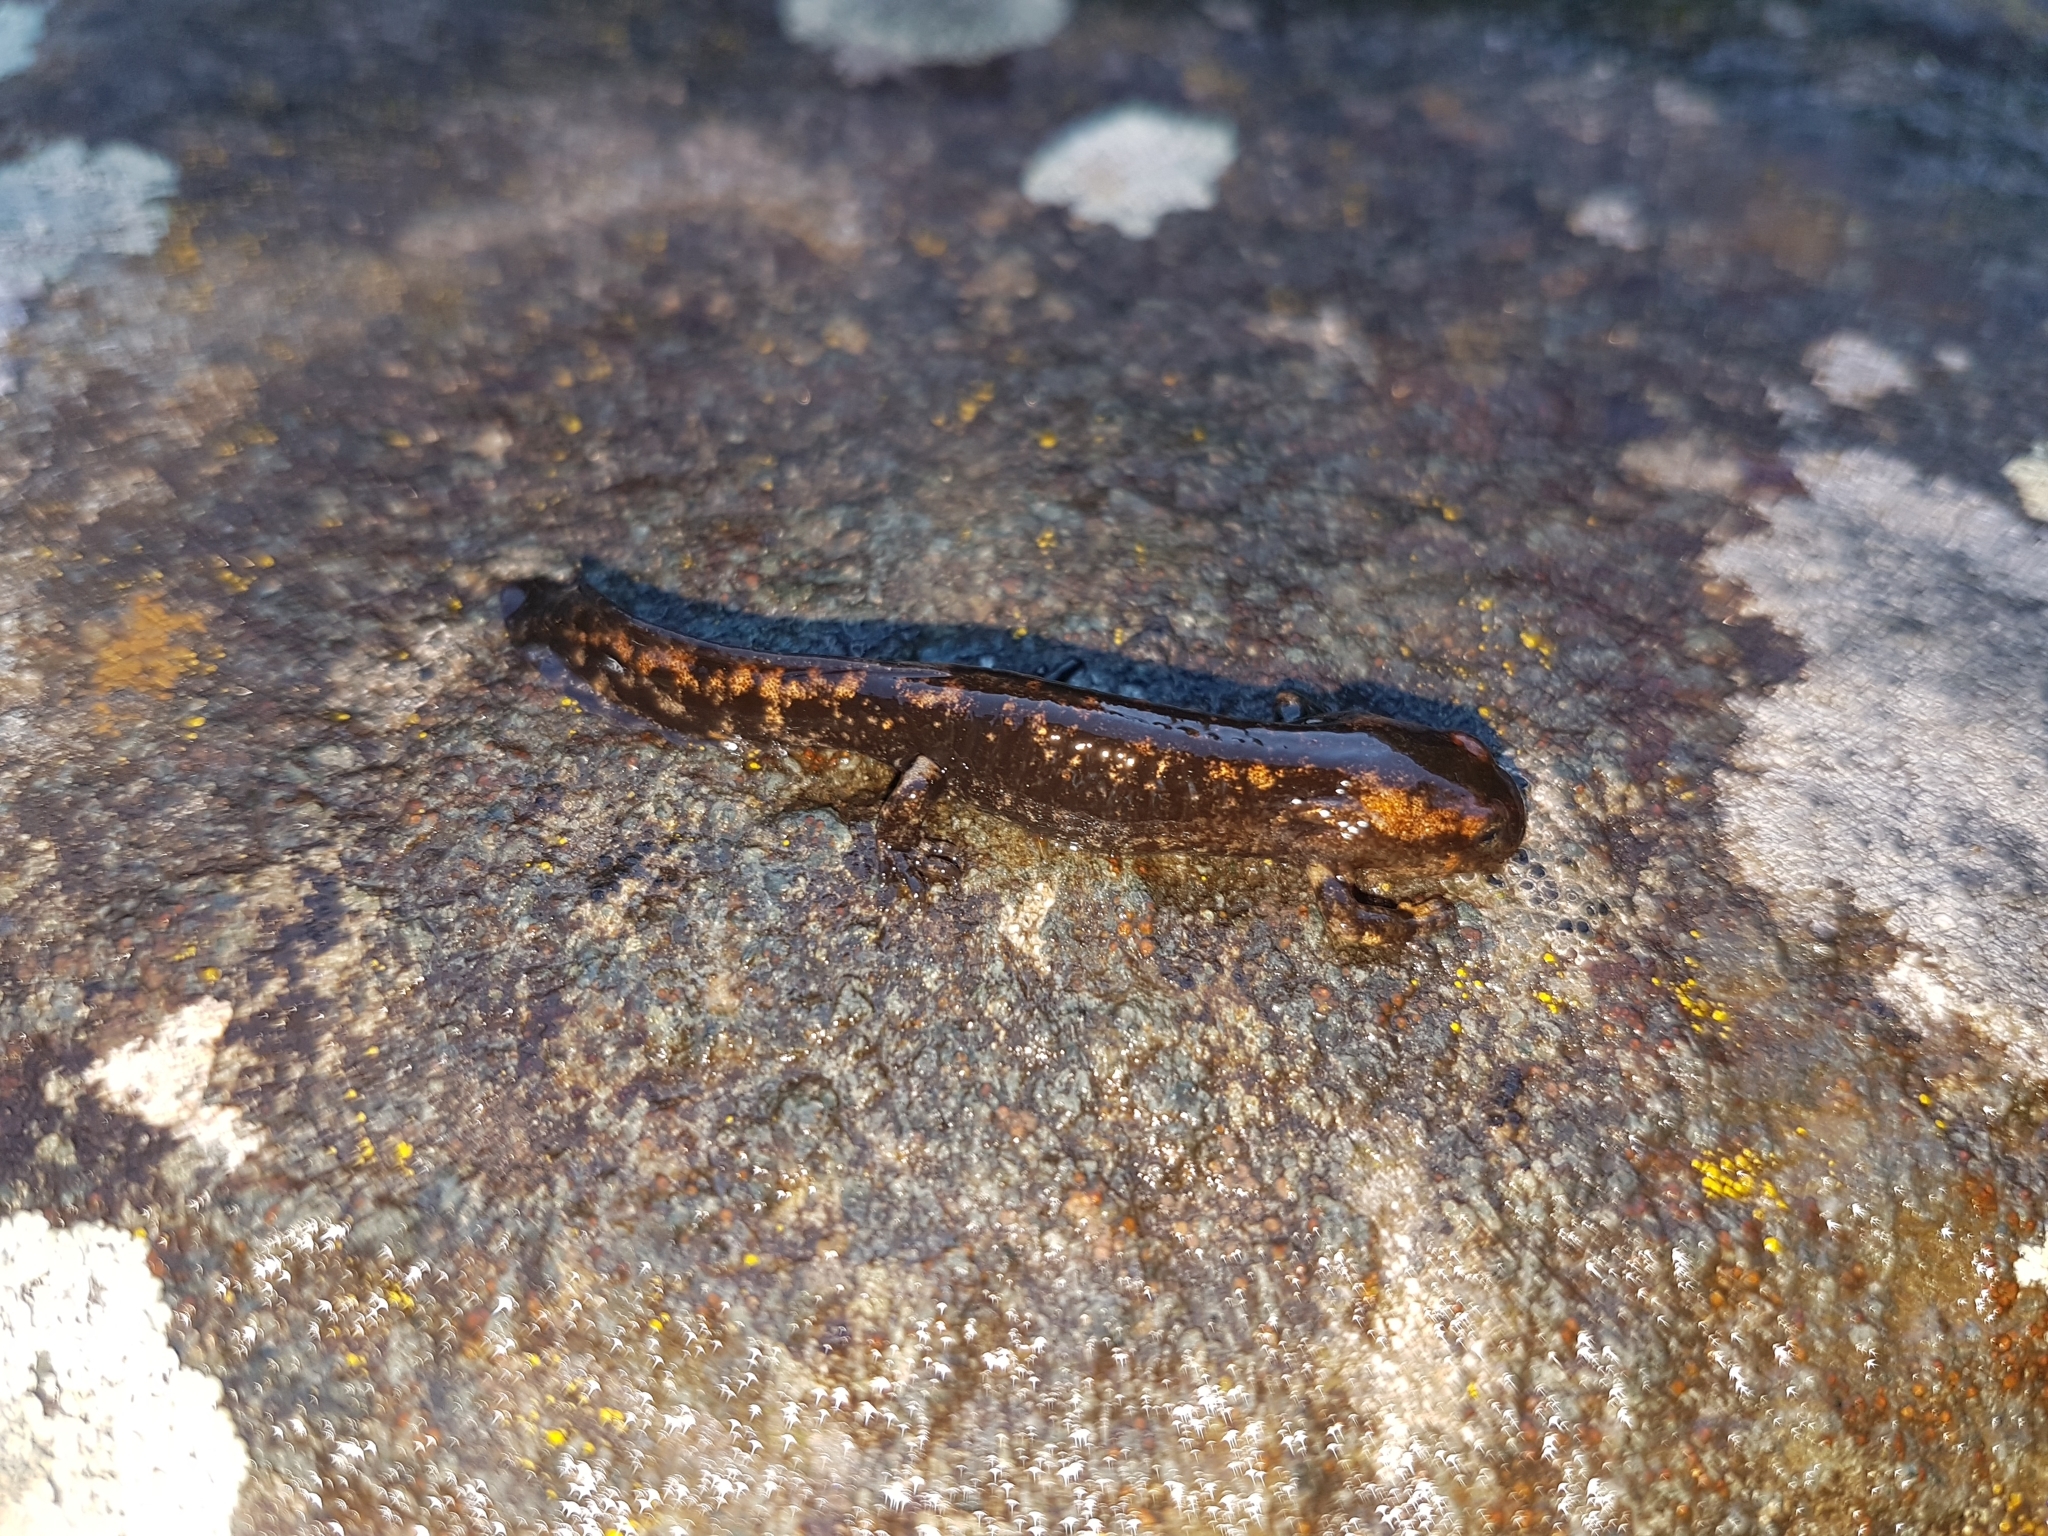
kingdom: Animalia
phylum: Chordata
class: Amphibia
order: Caudata
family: Salamandridae
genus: Salamandra
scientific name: Salamandra salamandra
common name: Fire salamander
